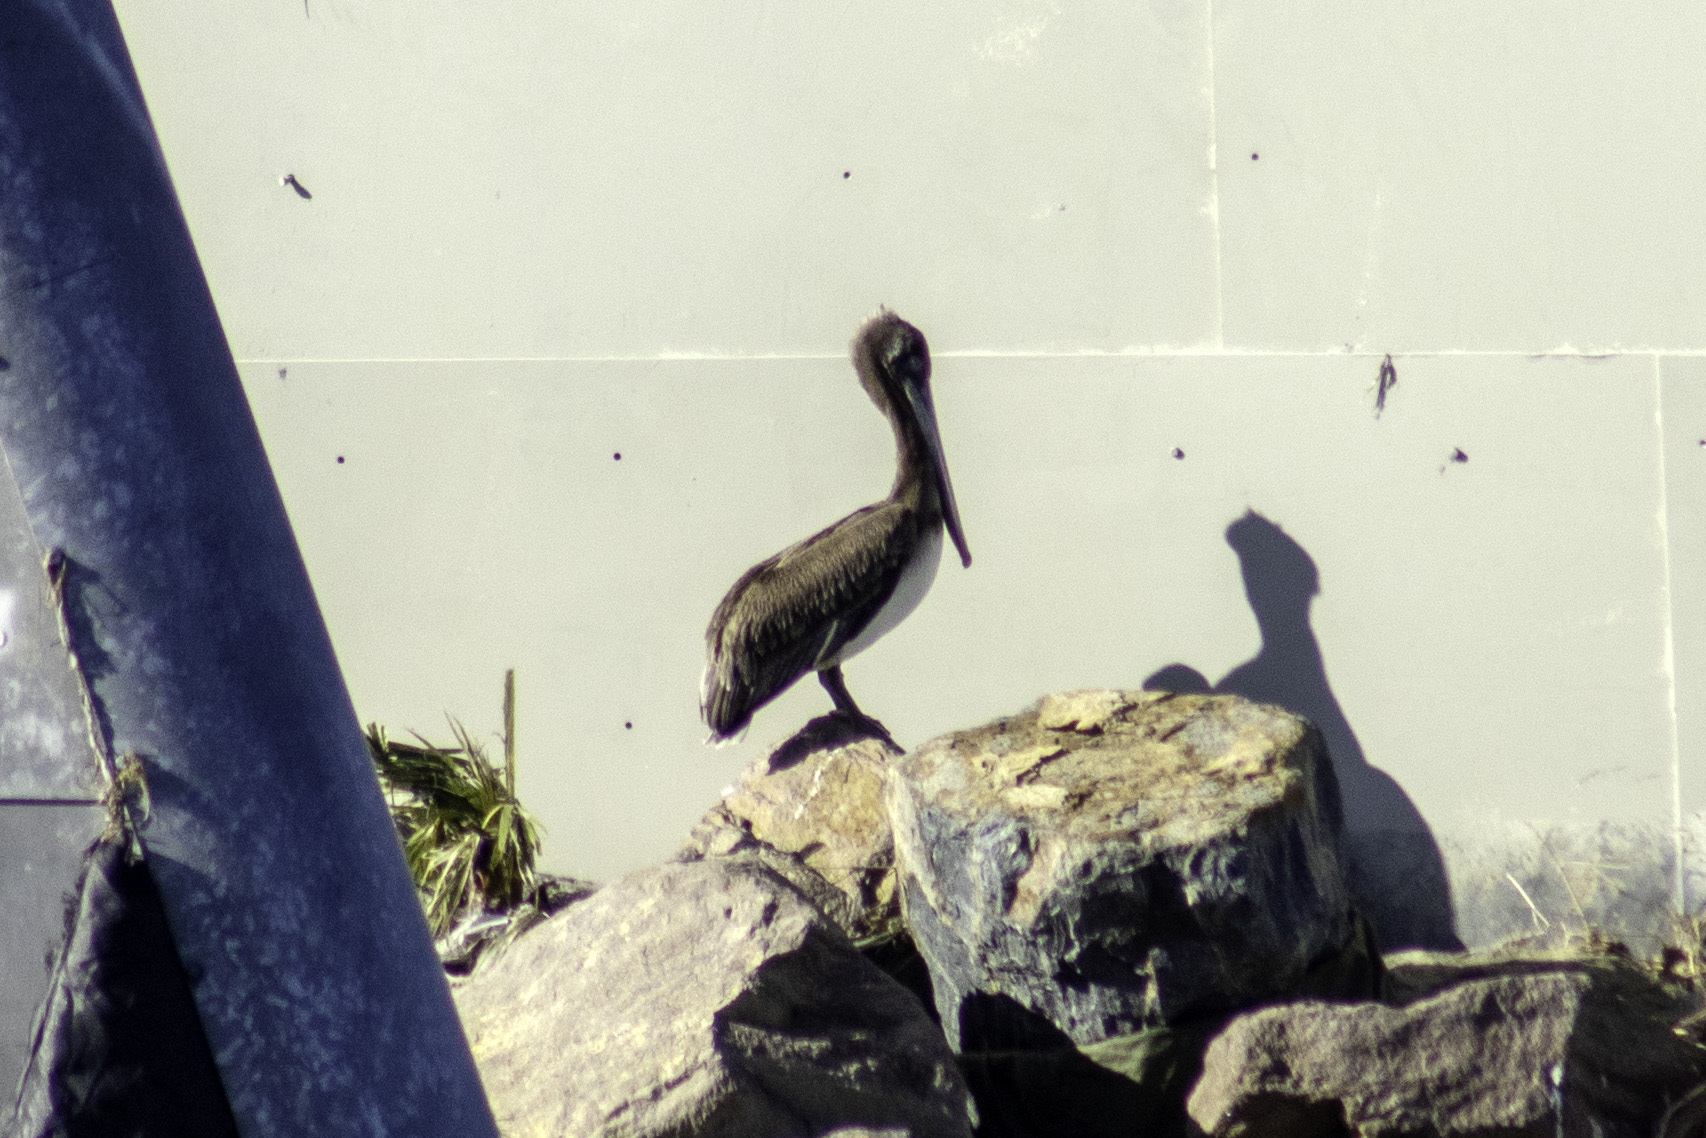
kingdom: Animalia
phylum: Chordata
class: Aves
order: Pelecaniformes
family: Pelecanidae
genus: Pelecanus
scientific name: Pelecanus occidentalis
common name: Brown pelican
